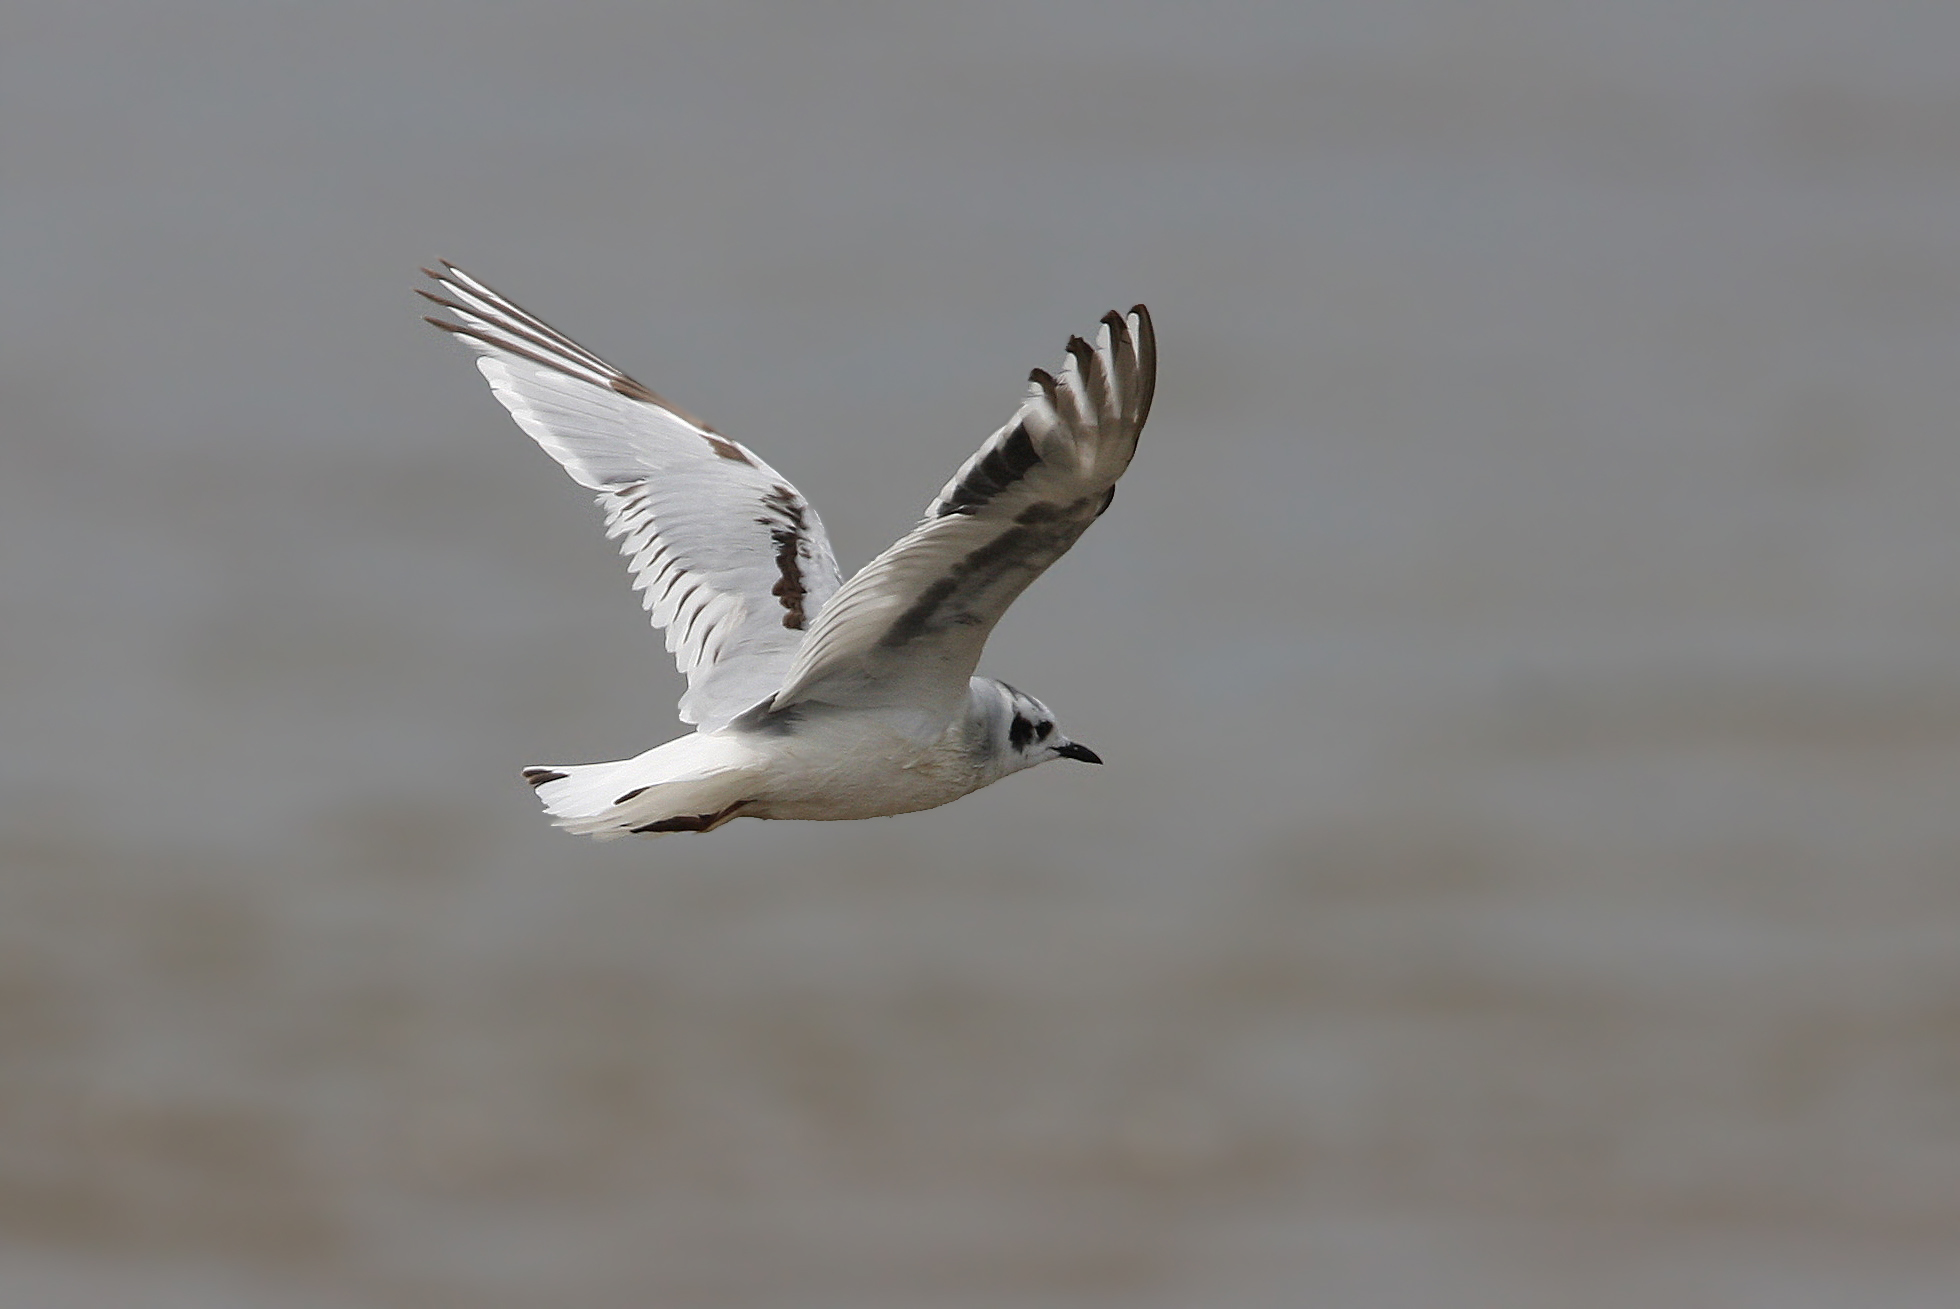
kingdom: Animalia
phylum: Chordata
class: Aves
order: Charadriiformes
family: Laridae
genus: Hydrocoloeus
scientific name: Hydrocoloeus minutus
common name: Little gull
